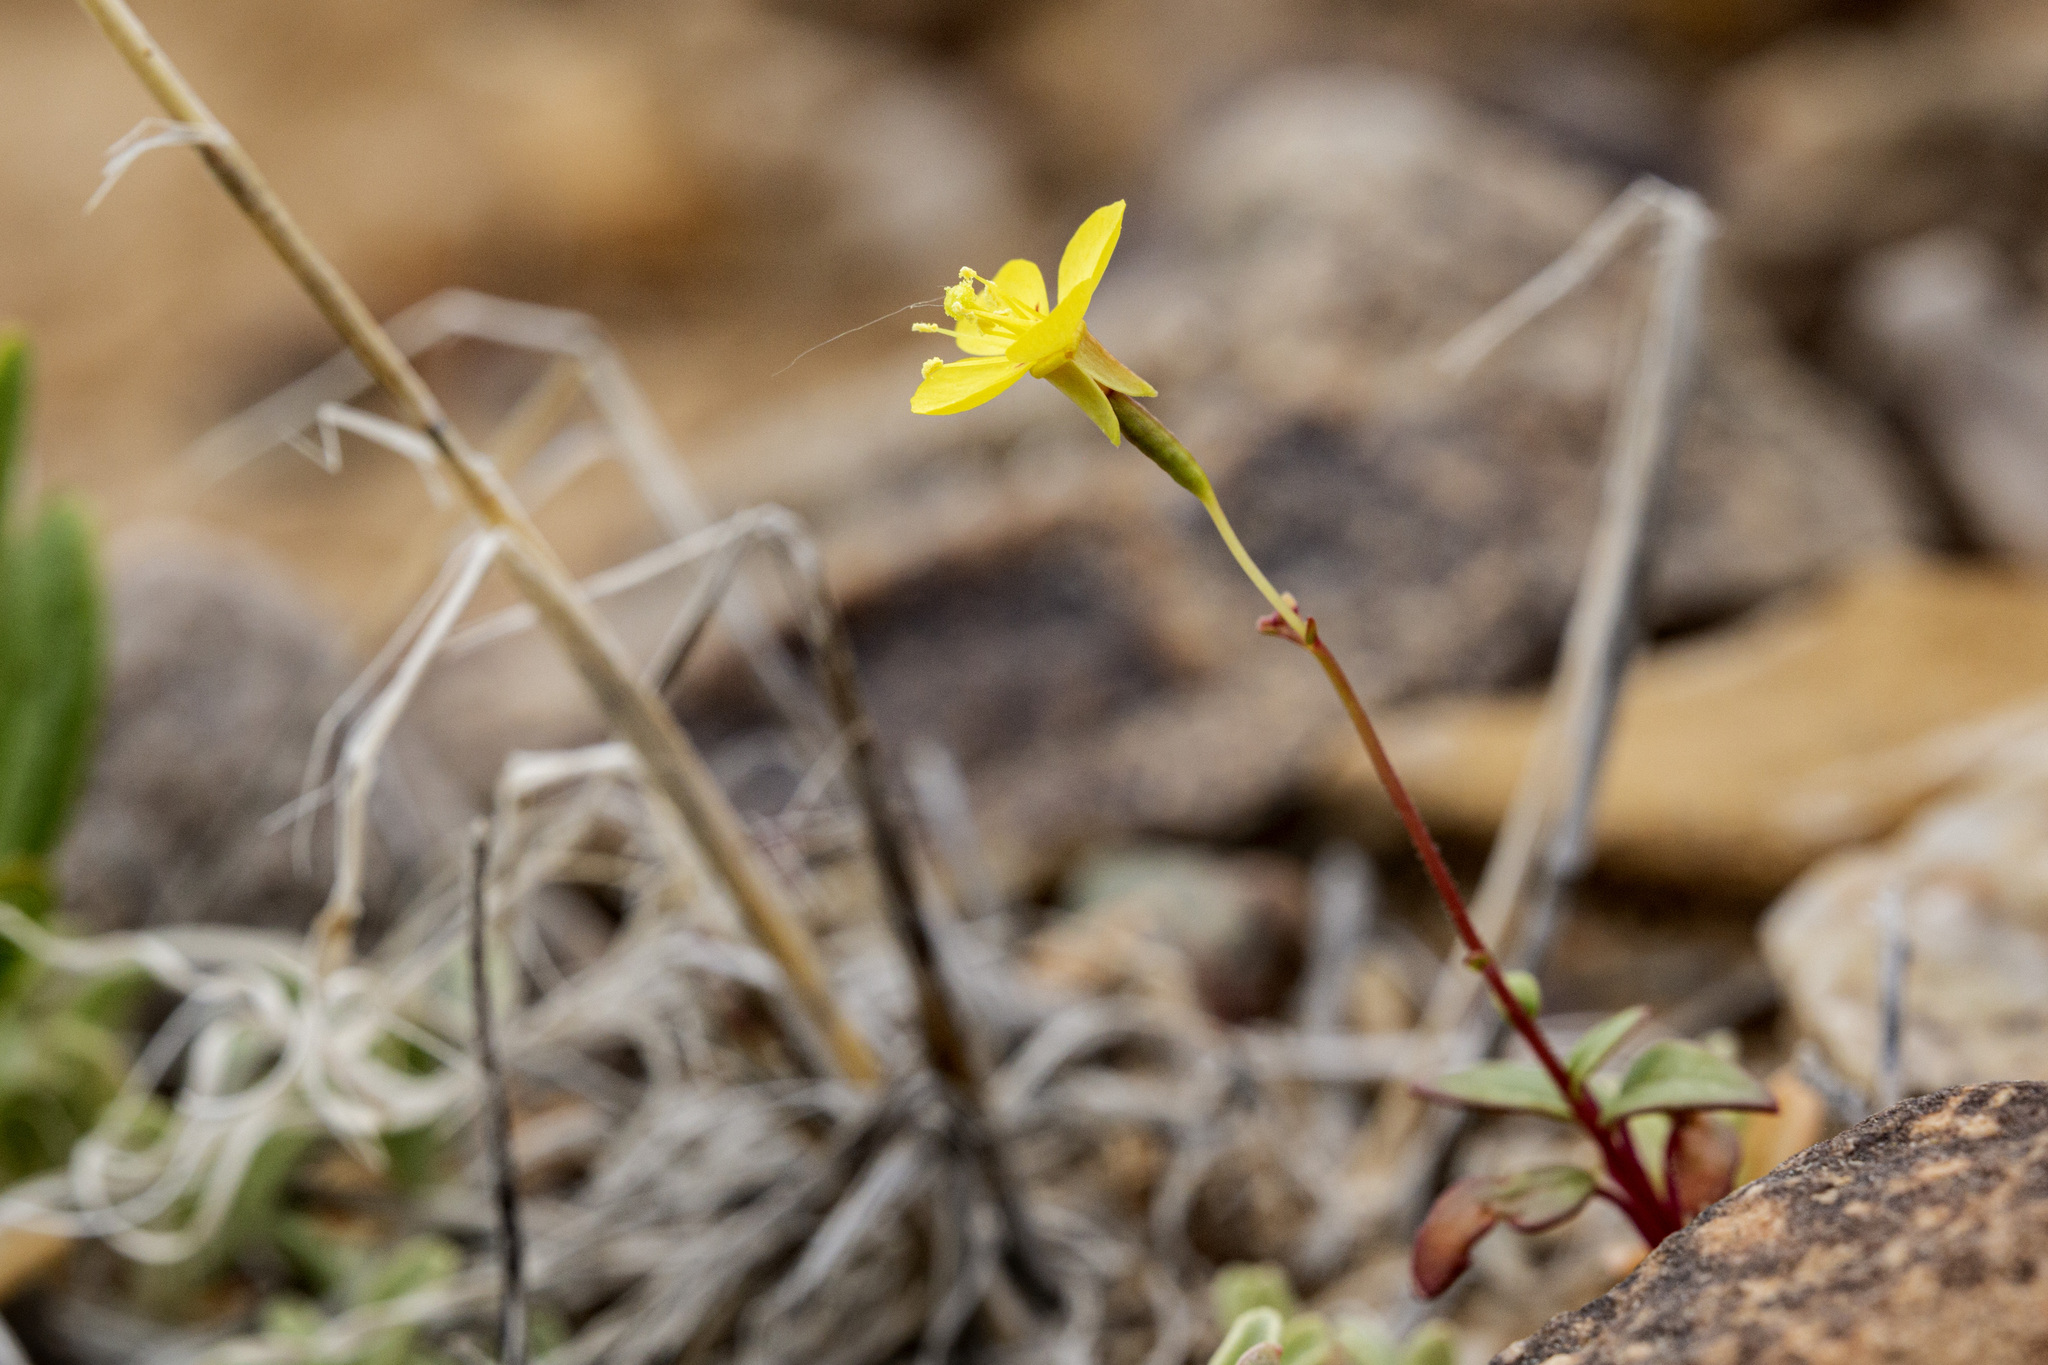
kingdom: Plantae
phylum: Tracheophyta
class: Magnoliopsida
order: Myrtales
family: Onagraceae
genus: Chylismia
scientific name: Chylismia scapoidea
